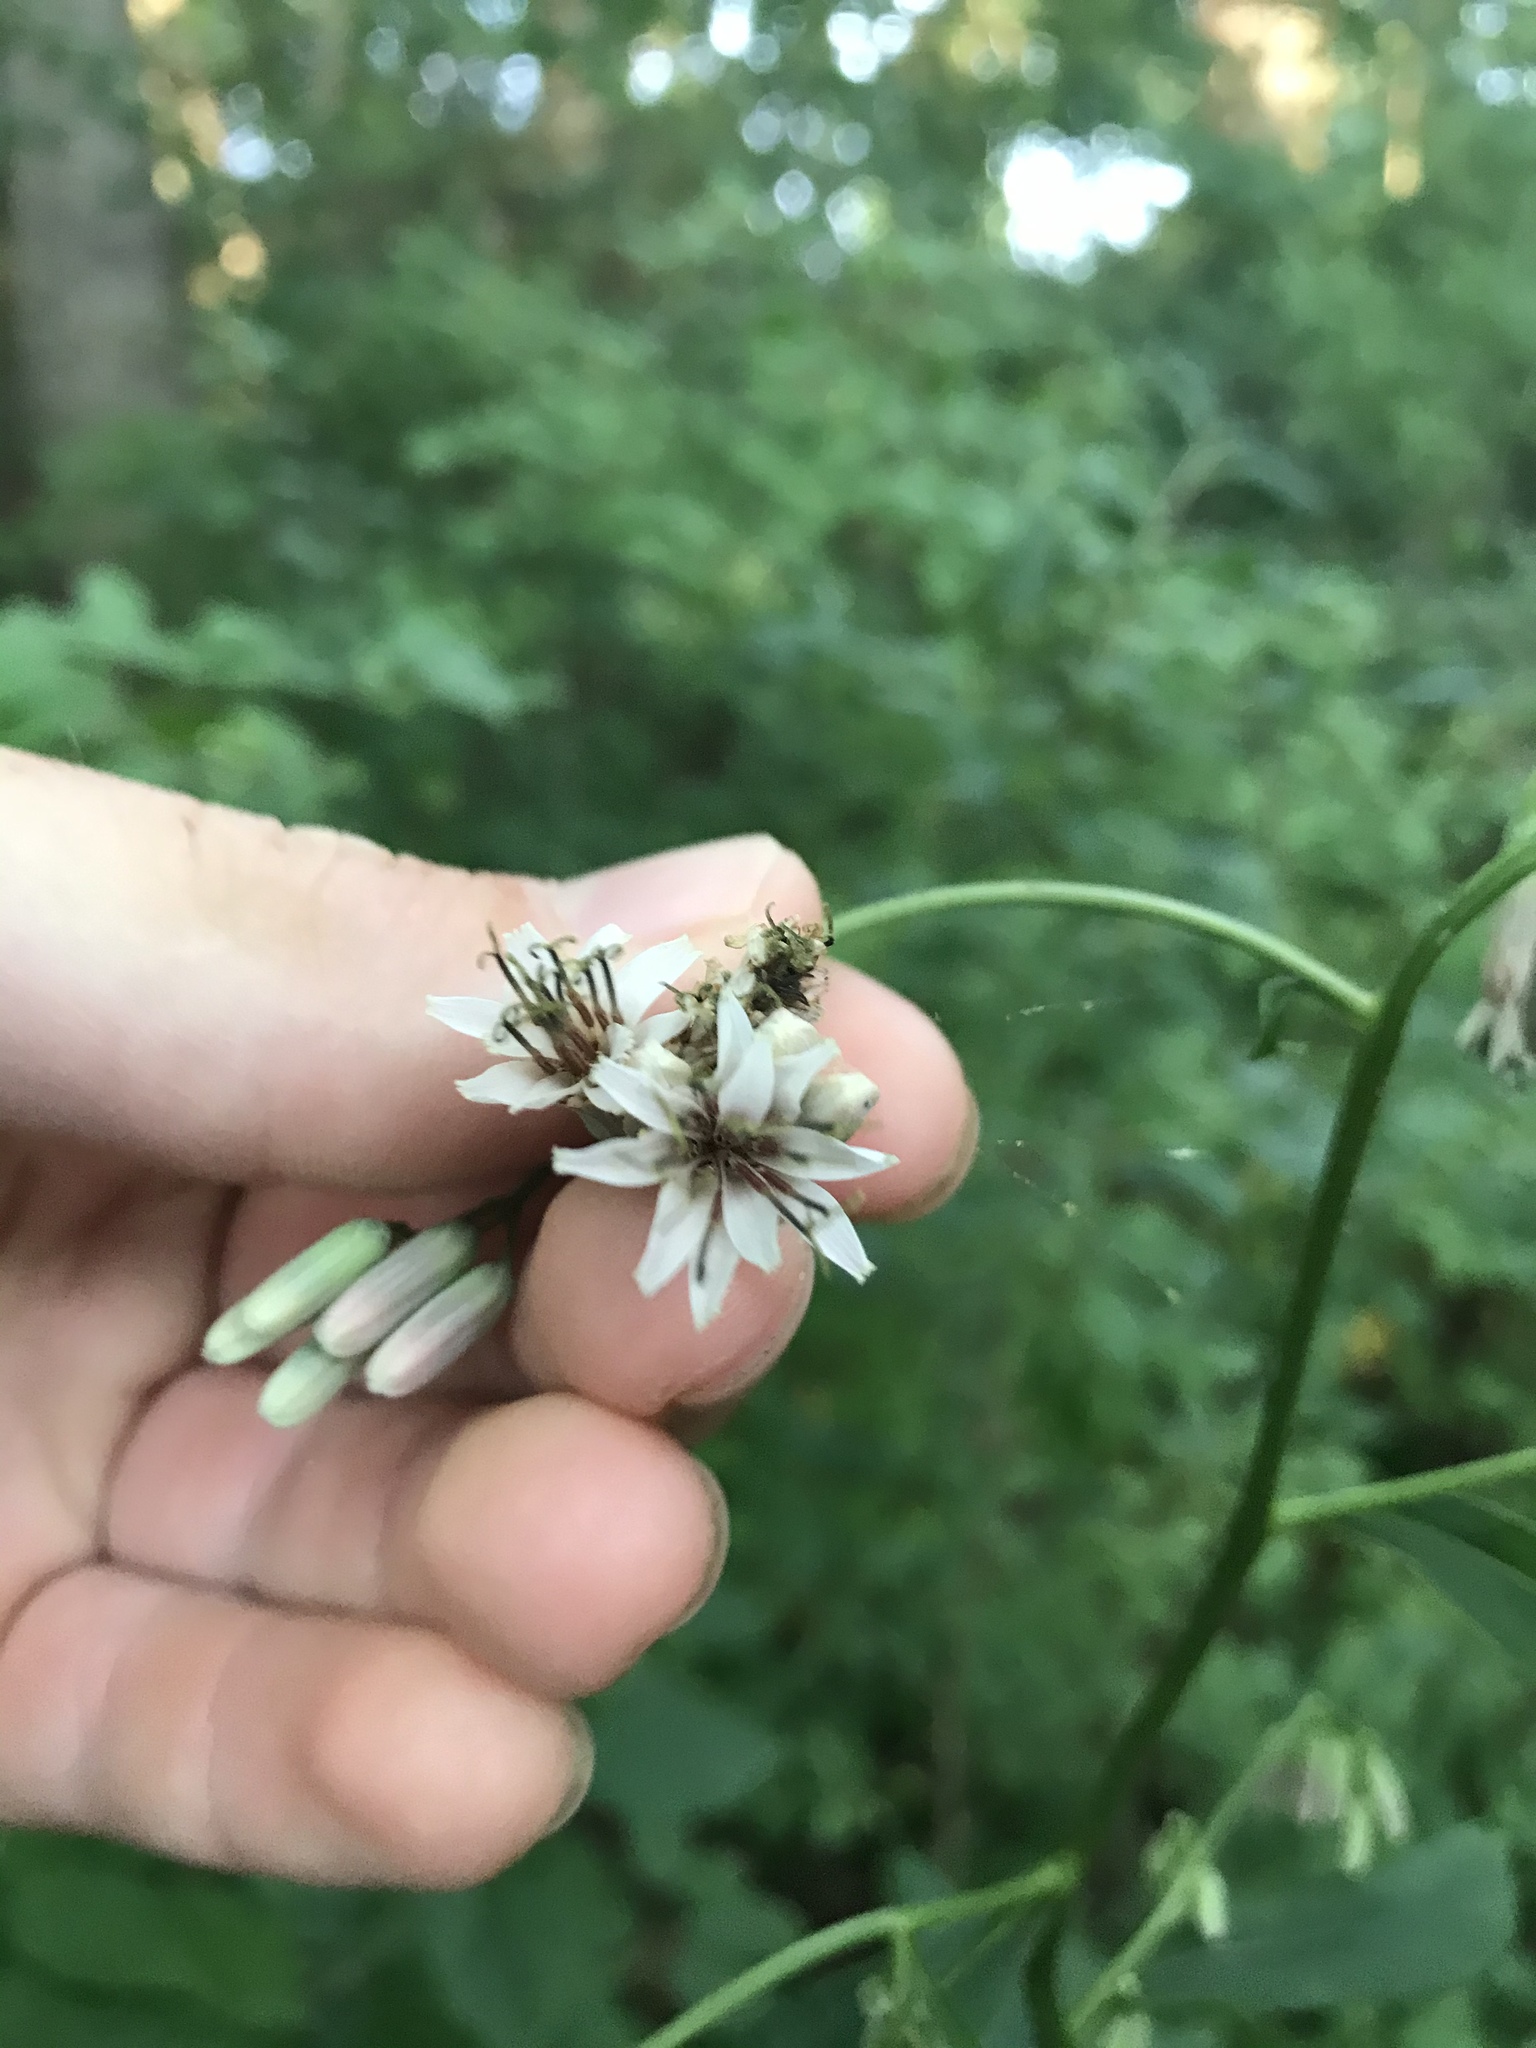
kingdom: Plantae
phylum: Tracheophyta
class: Magnoliopsida
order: Asterales
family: Asteraceae
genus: Nabalus
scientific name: Nabalus albus
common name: White rattlesnakeroot
